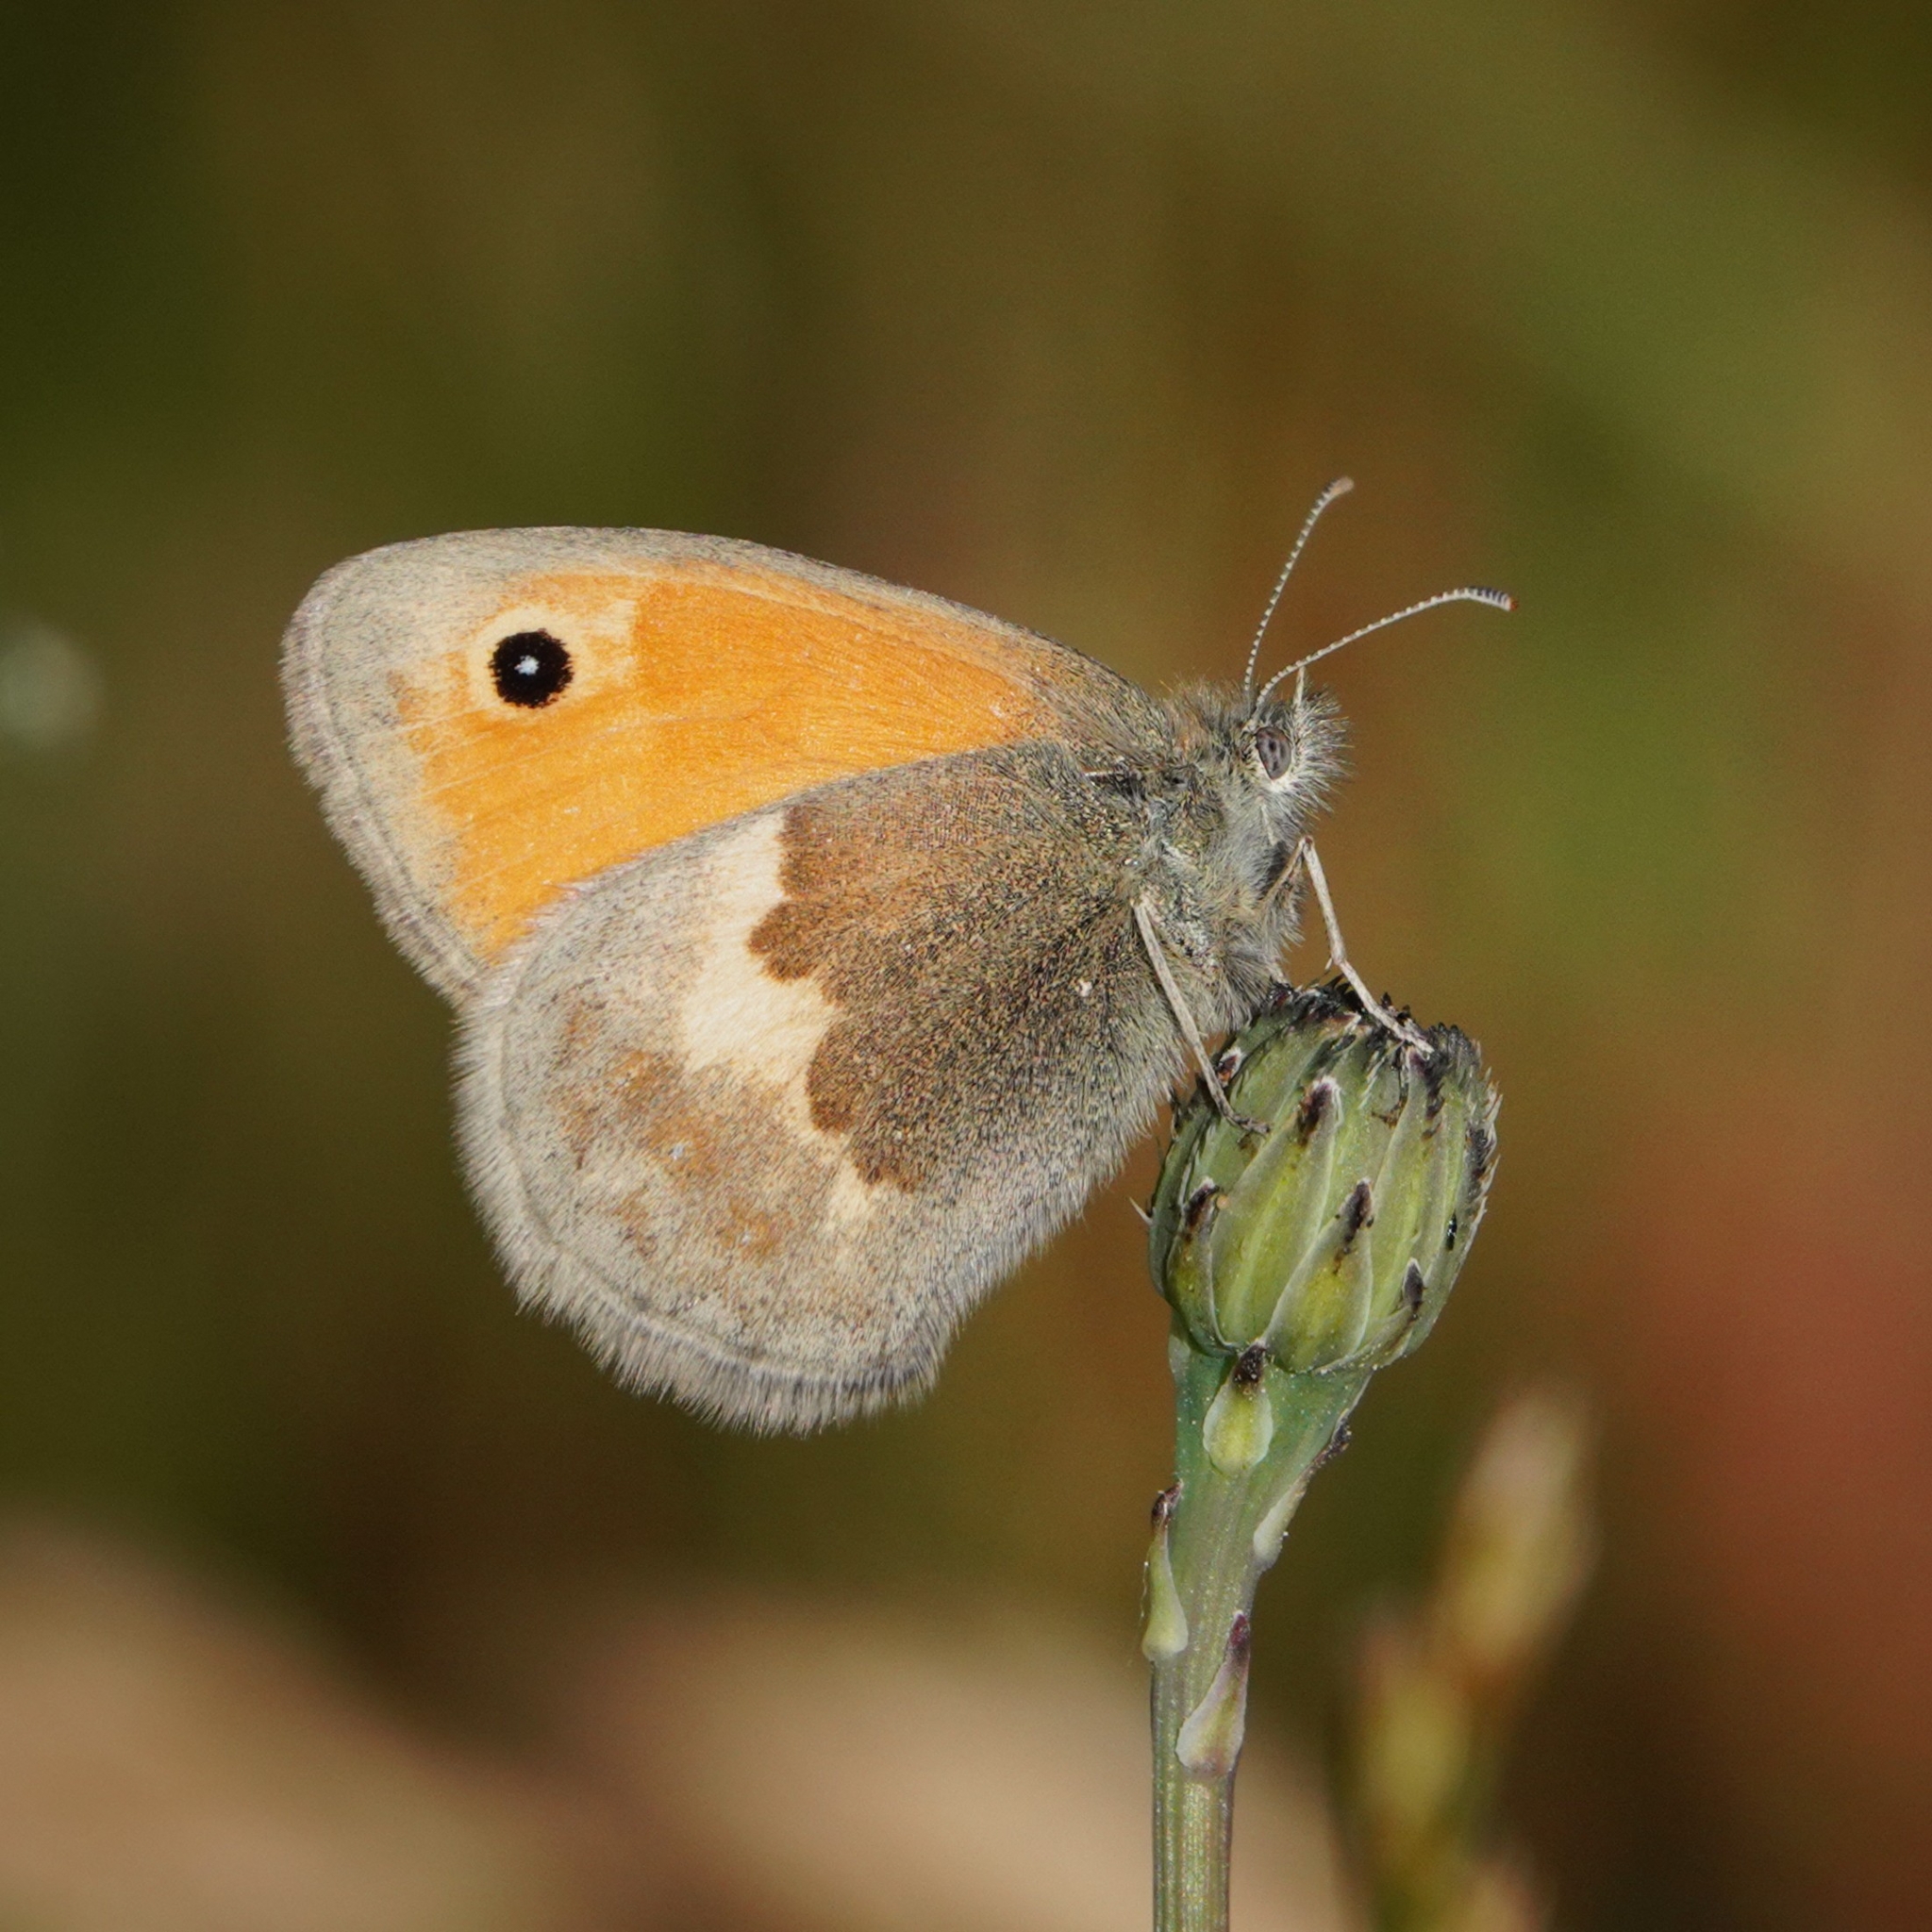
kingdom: Animalia
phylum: Arthropoda
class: Insecta
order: Lepidoptera
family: Nymphalidae
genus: Coenonympha
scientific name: Coenonympha pamphilus
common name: Small heath
